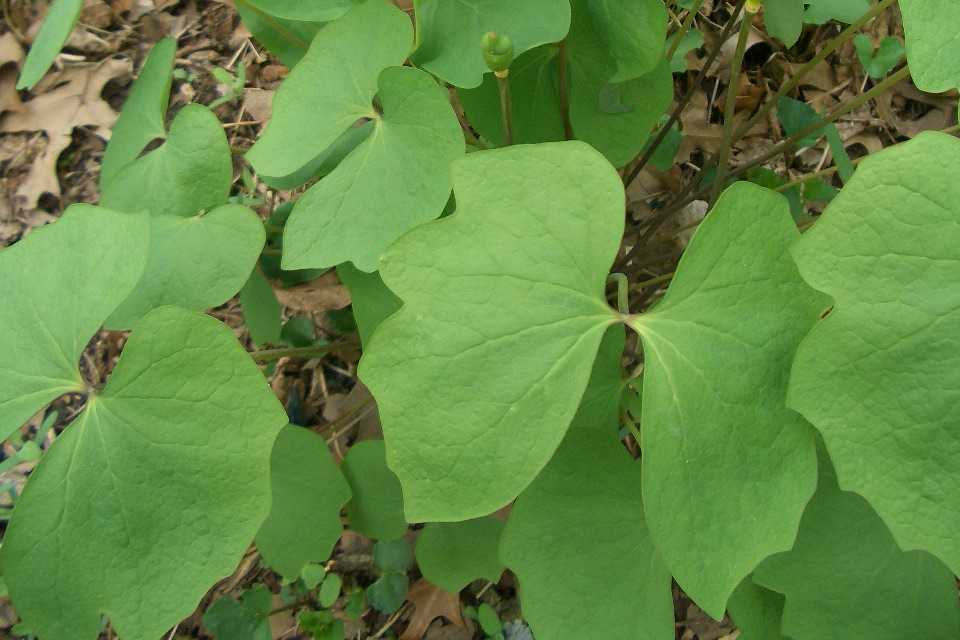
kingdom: Plantae
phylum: Tracheophyta
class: Magnoliopsida
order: Ranunculales
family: Berberidaceae
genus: Jeffersonia
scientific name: Jeffersonia diphylla
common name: Rheumatism-root
